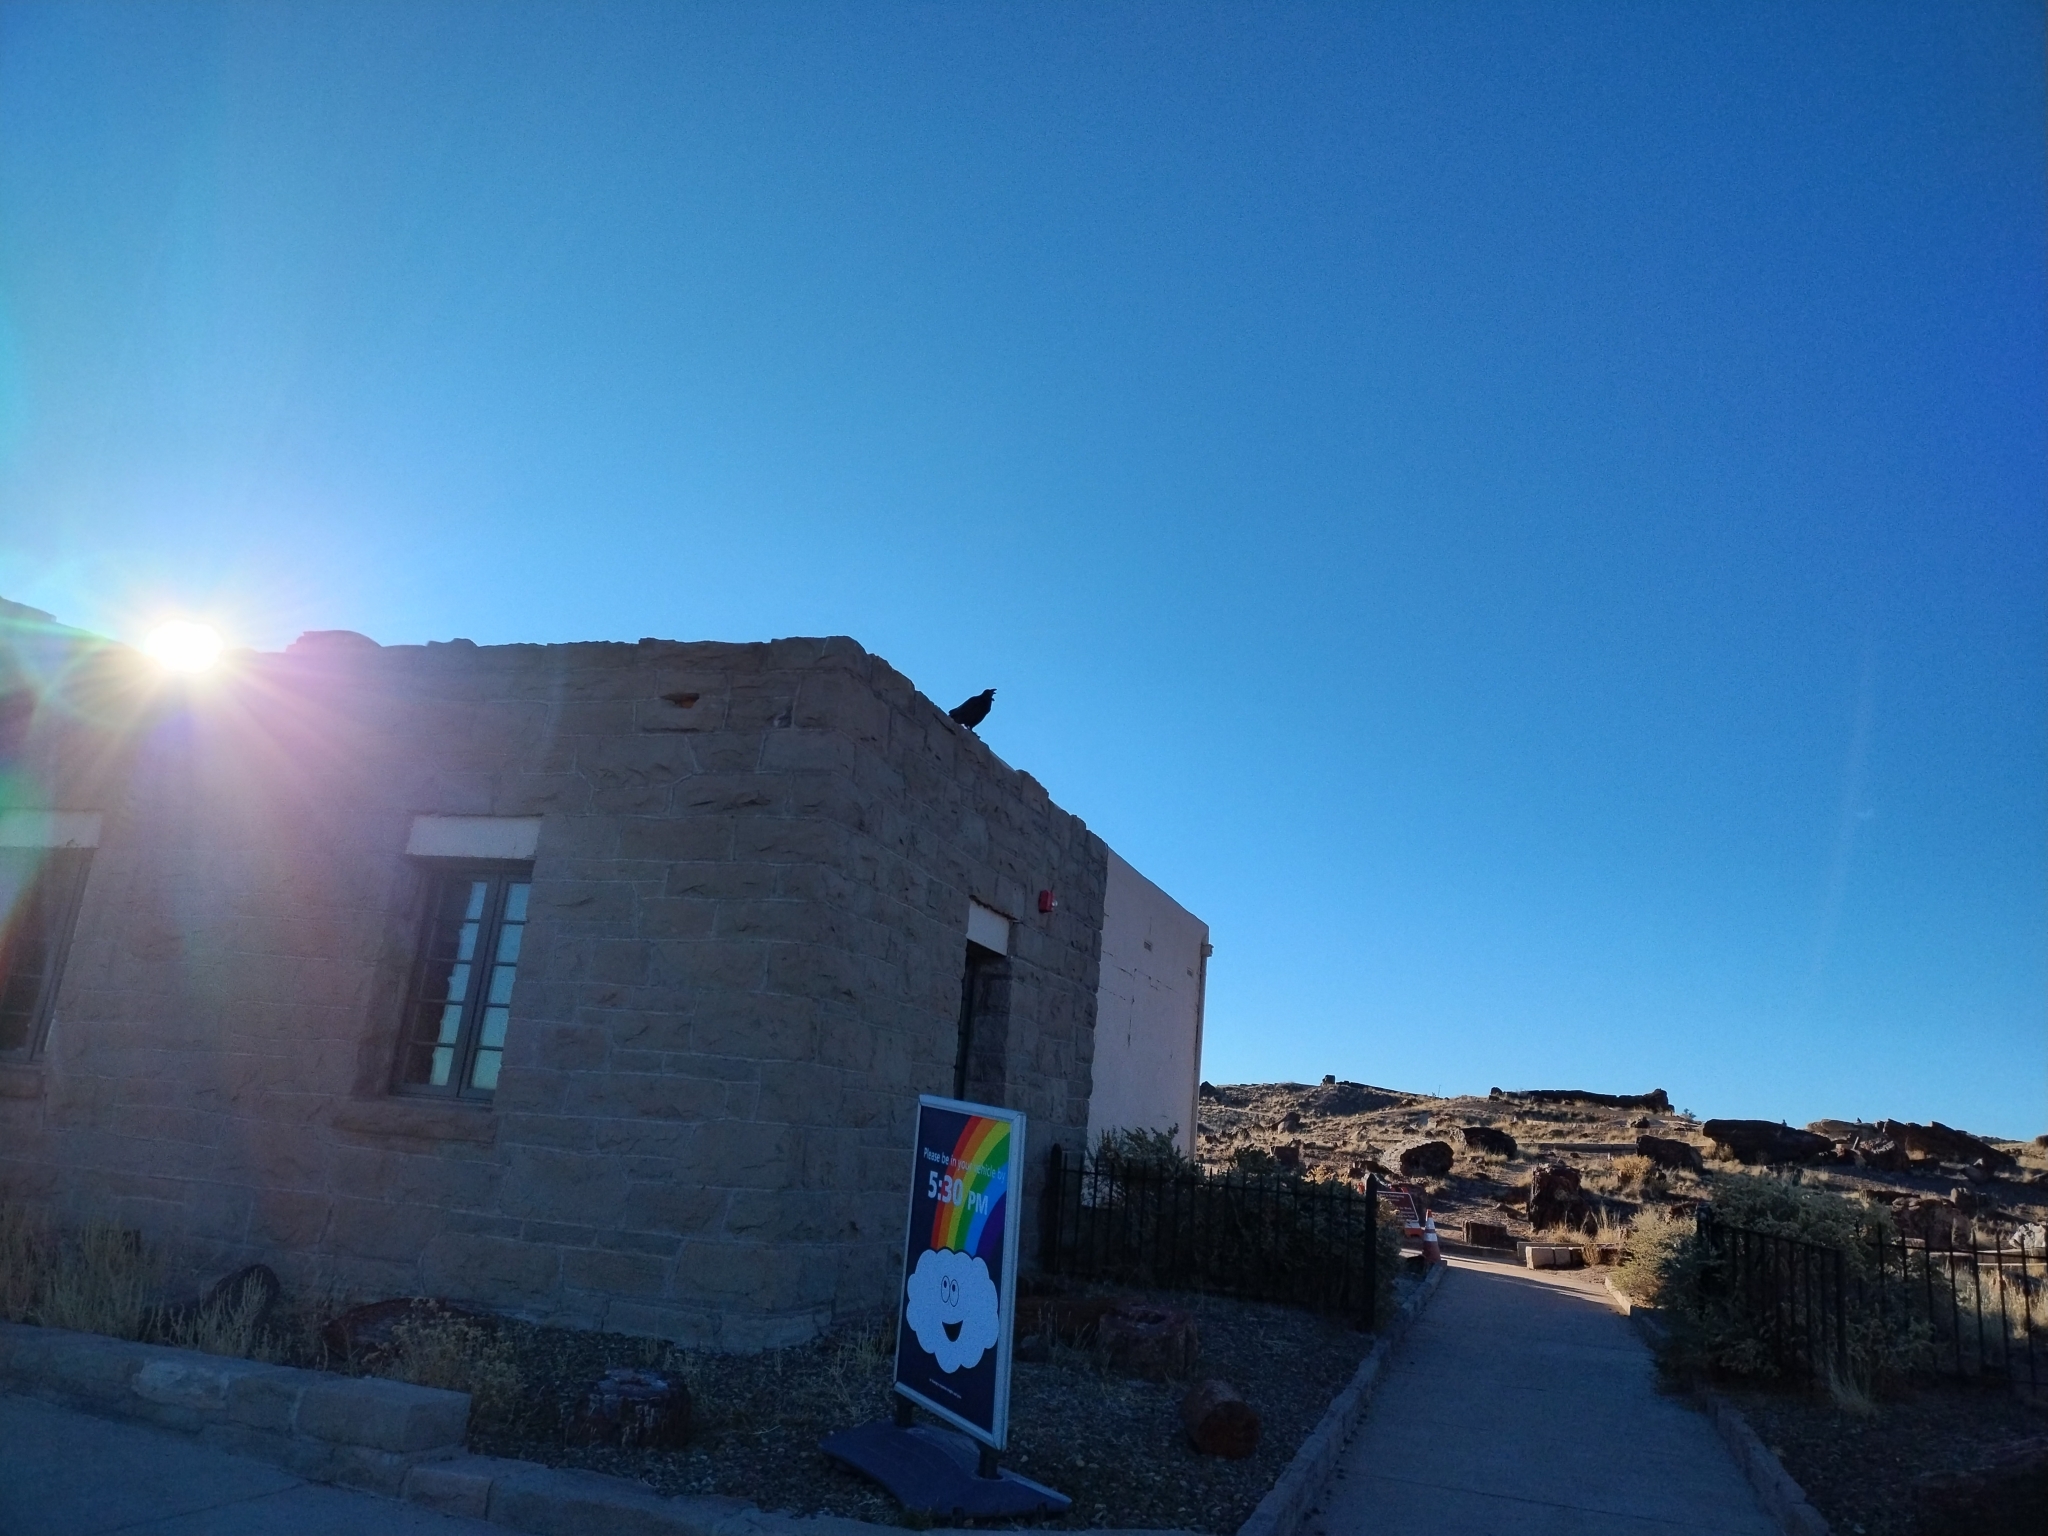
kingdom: Animalia
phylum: Chordata
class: Aves
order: Passeriformes
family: Corvidae
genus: Corvus
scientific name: Corvus corax
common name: Common raven
